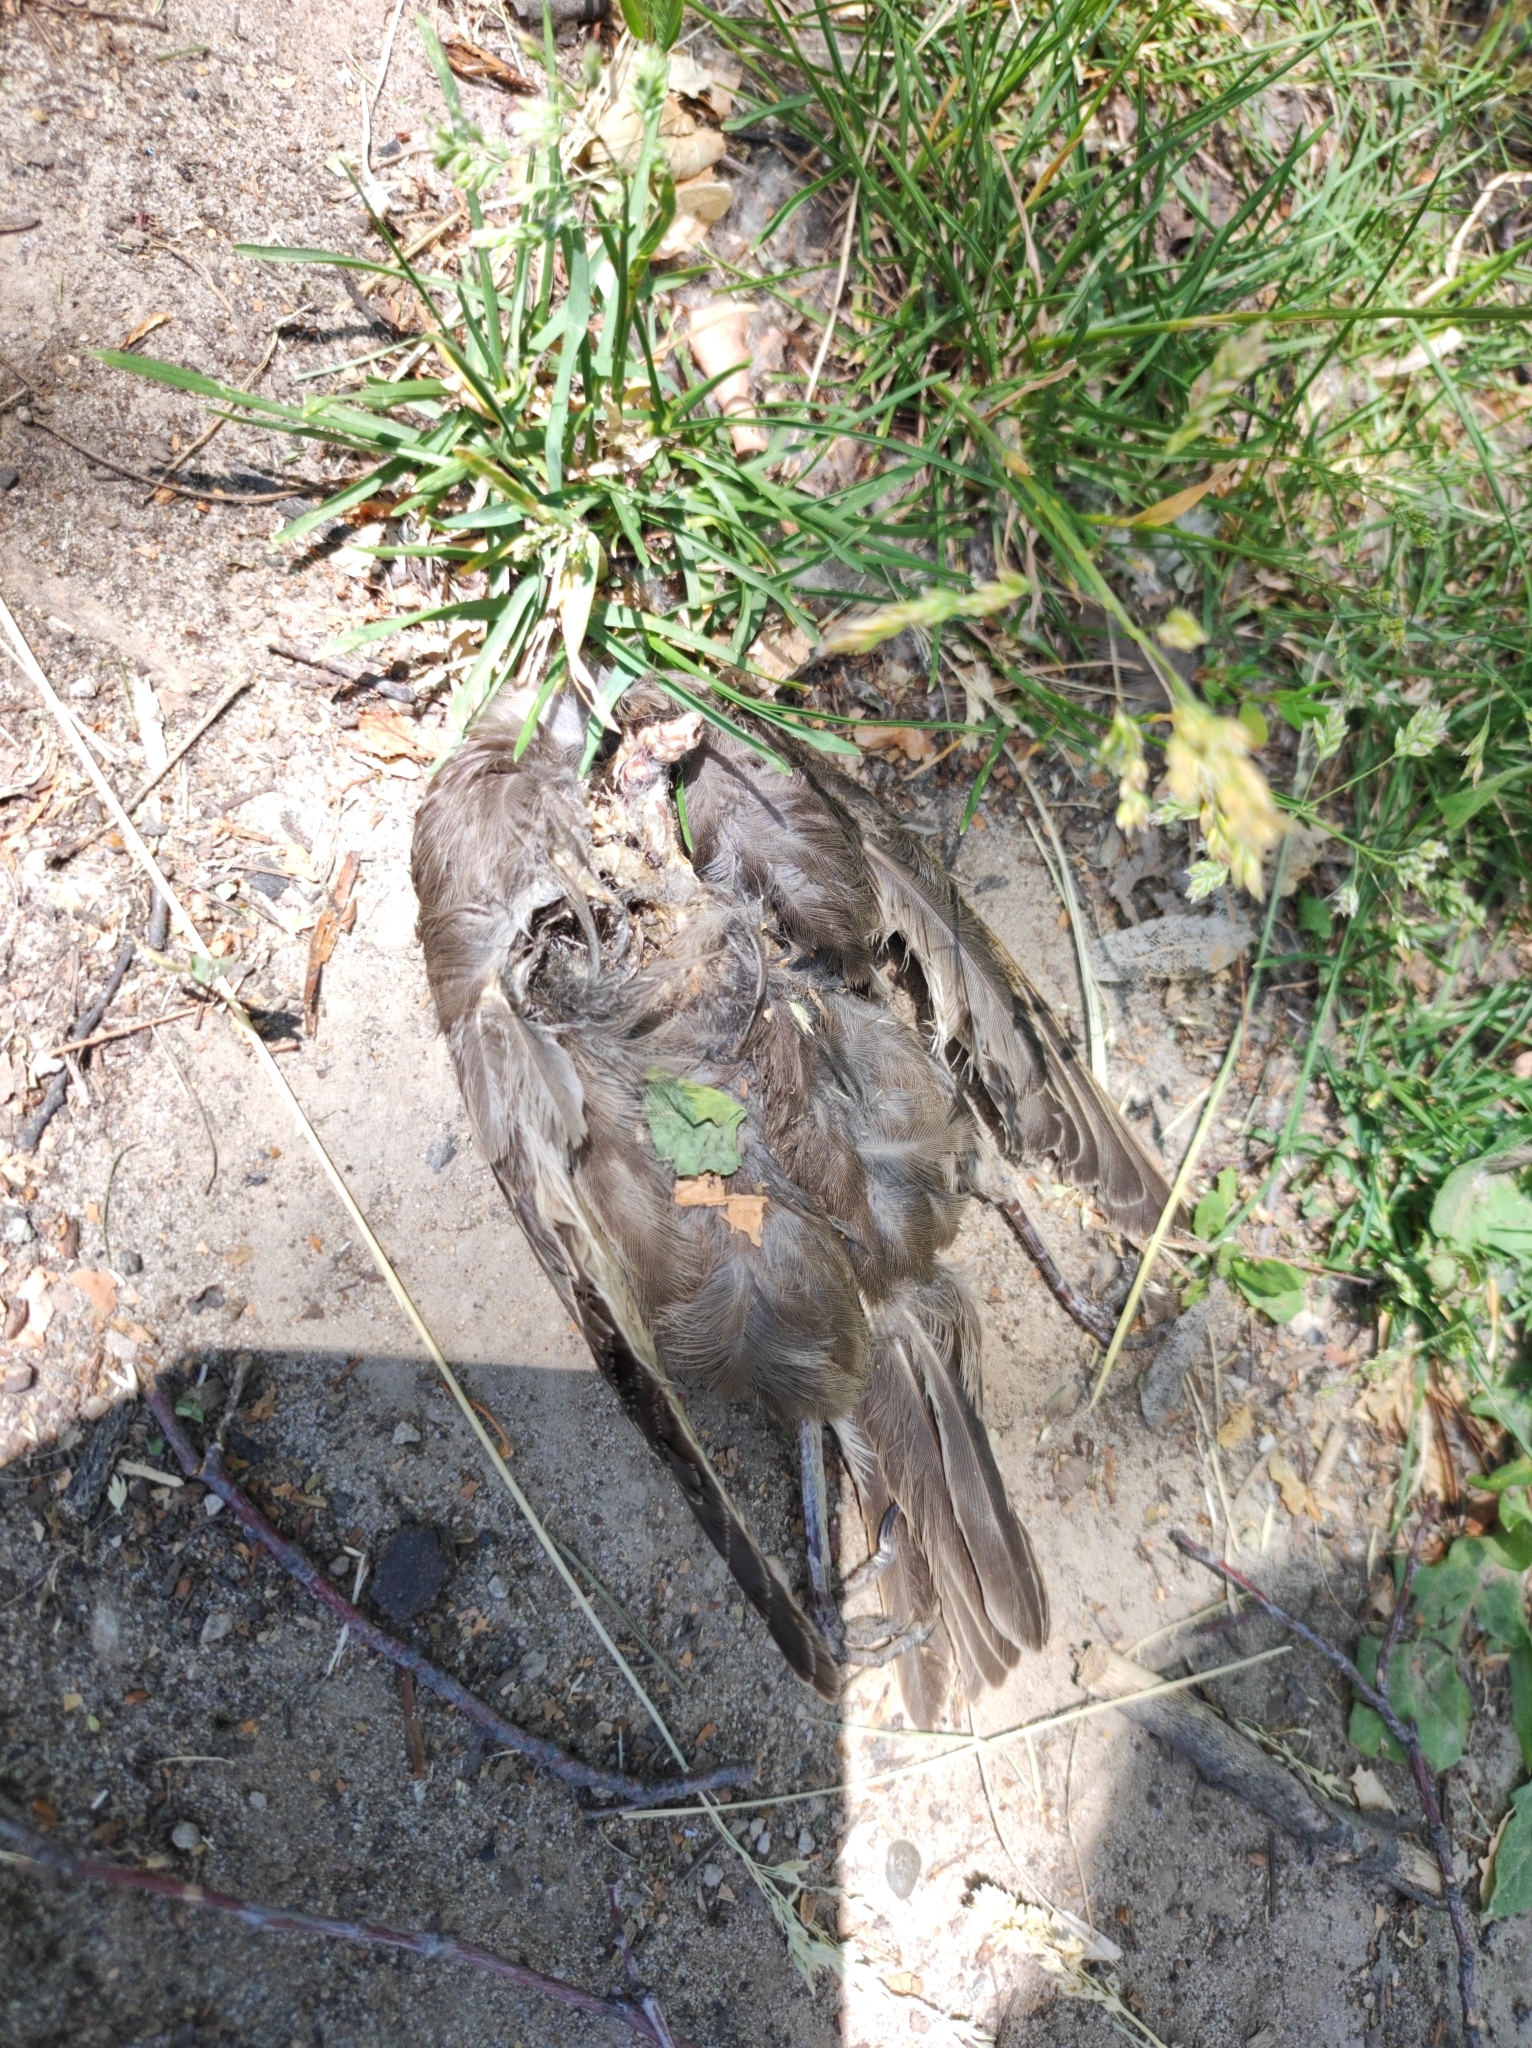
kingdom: Animalia
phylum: Chordata
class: Aves
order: Passeriformes
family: Sturnidae
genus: Sturnus
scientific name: Sturnus vulgaris
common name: Common starling
